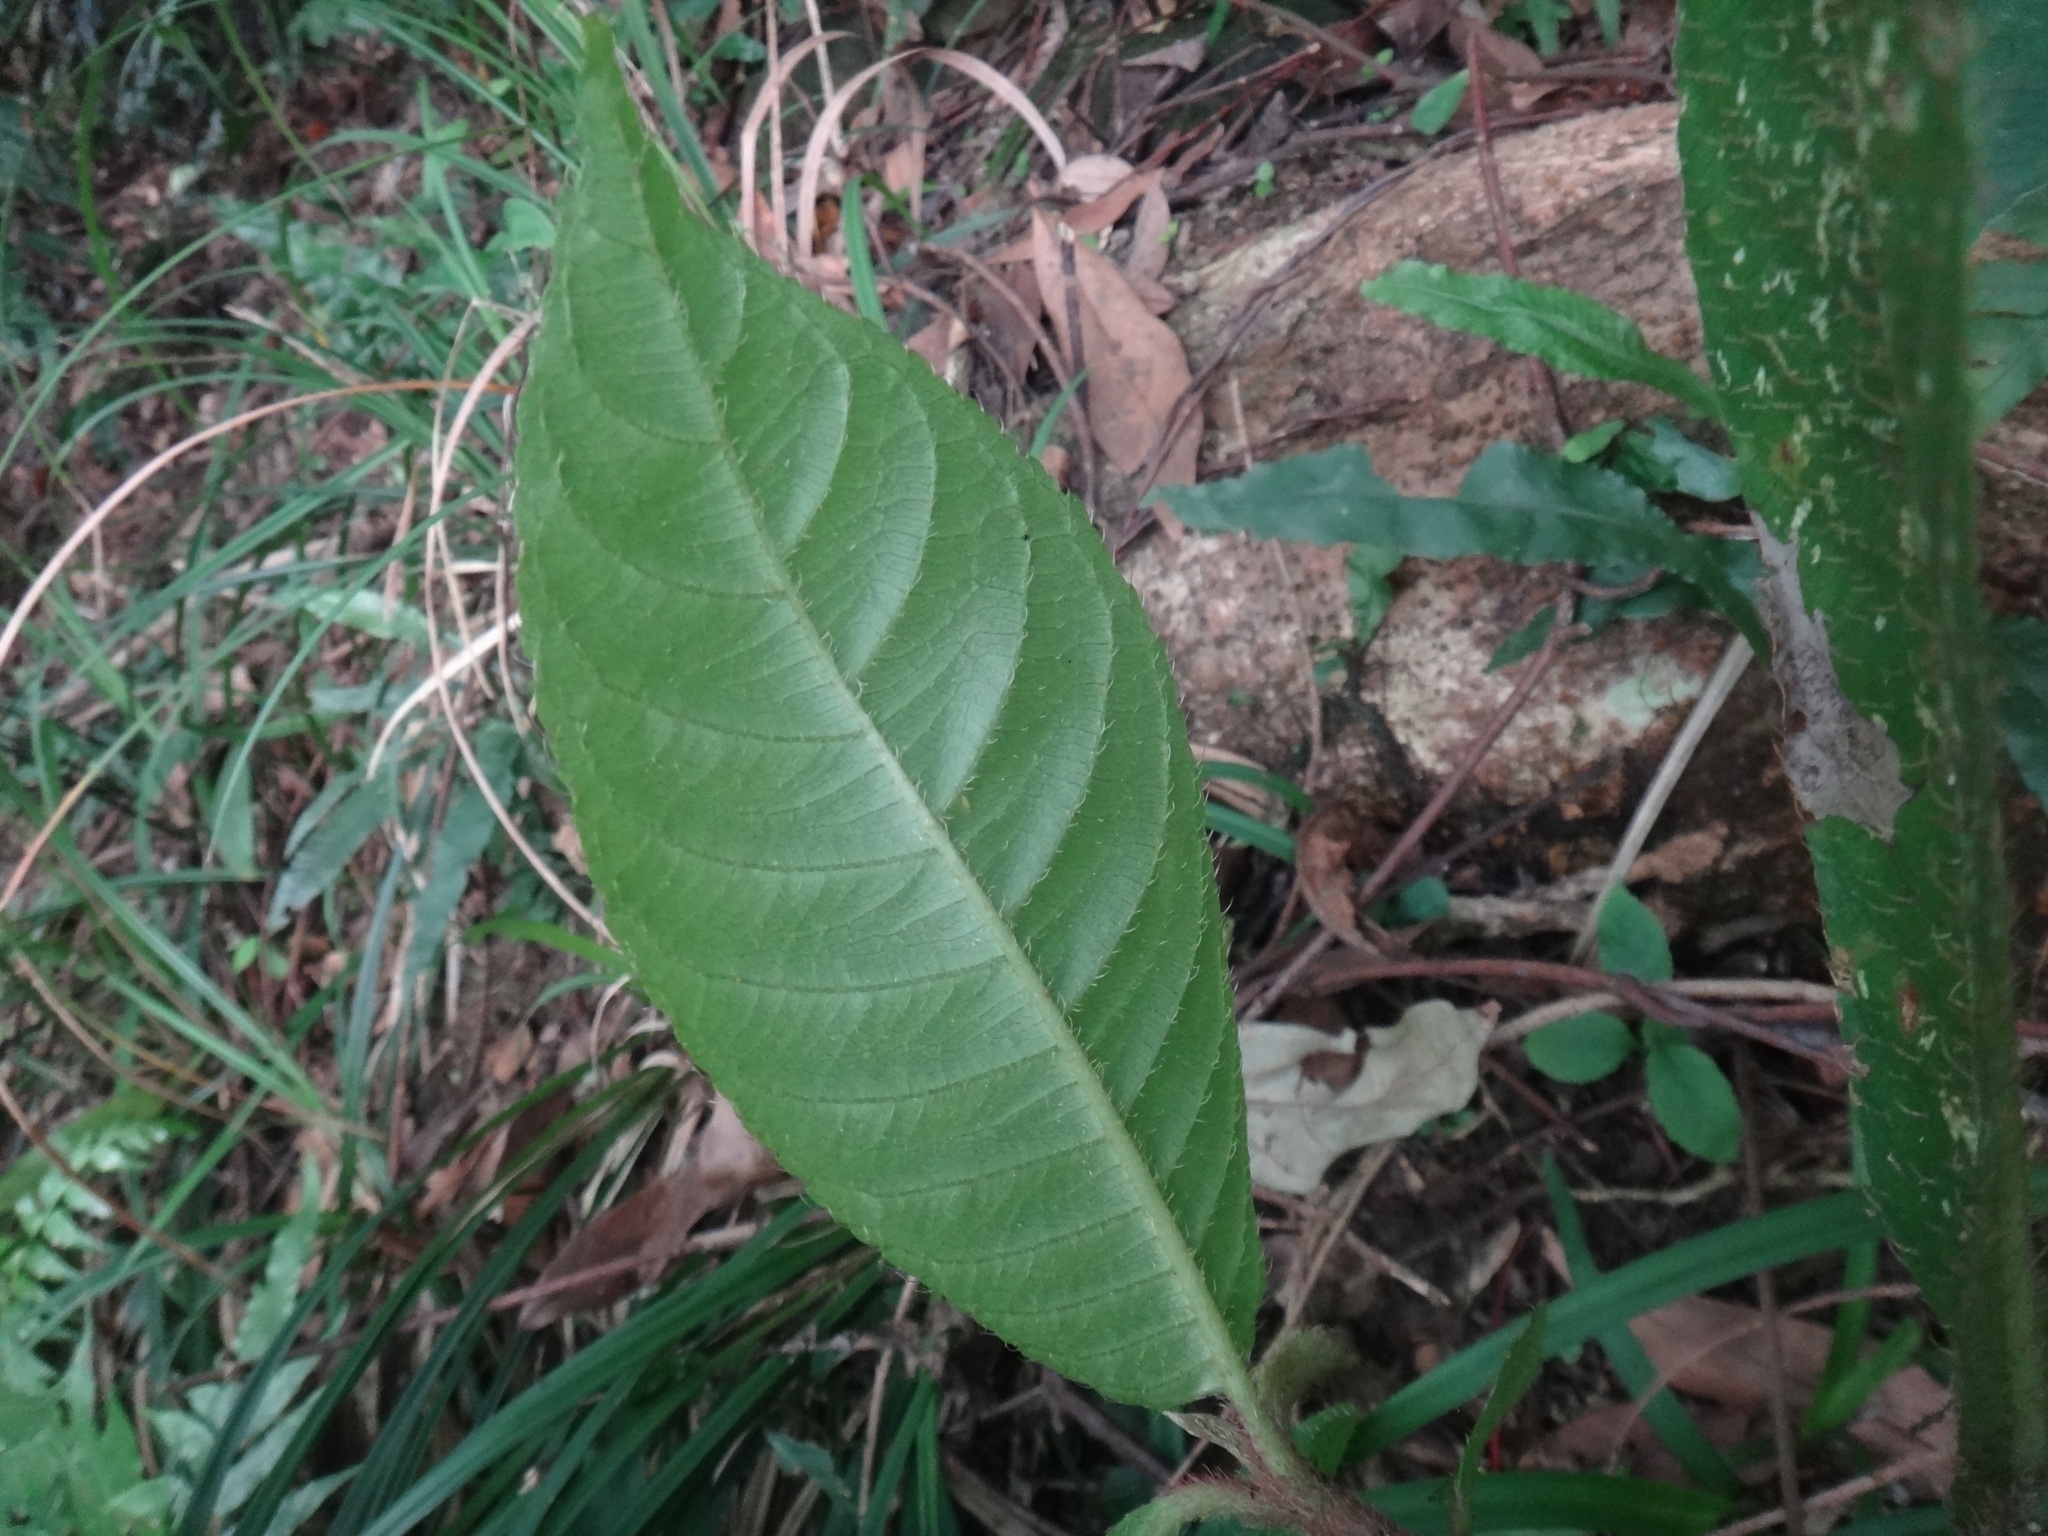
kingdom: Plantae
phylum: Tracheophyta
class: Magnoliopsida
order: Ericales
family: Actinidiaceae
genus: Saurauia
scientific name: Saurauia tristyla
